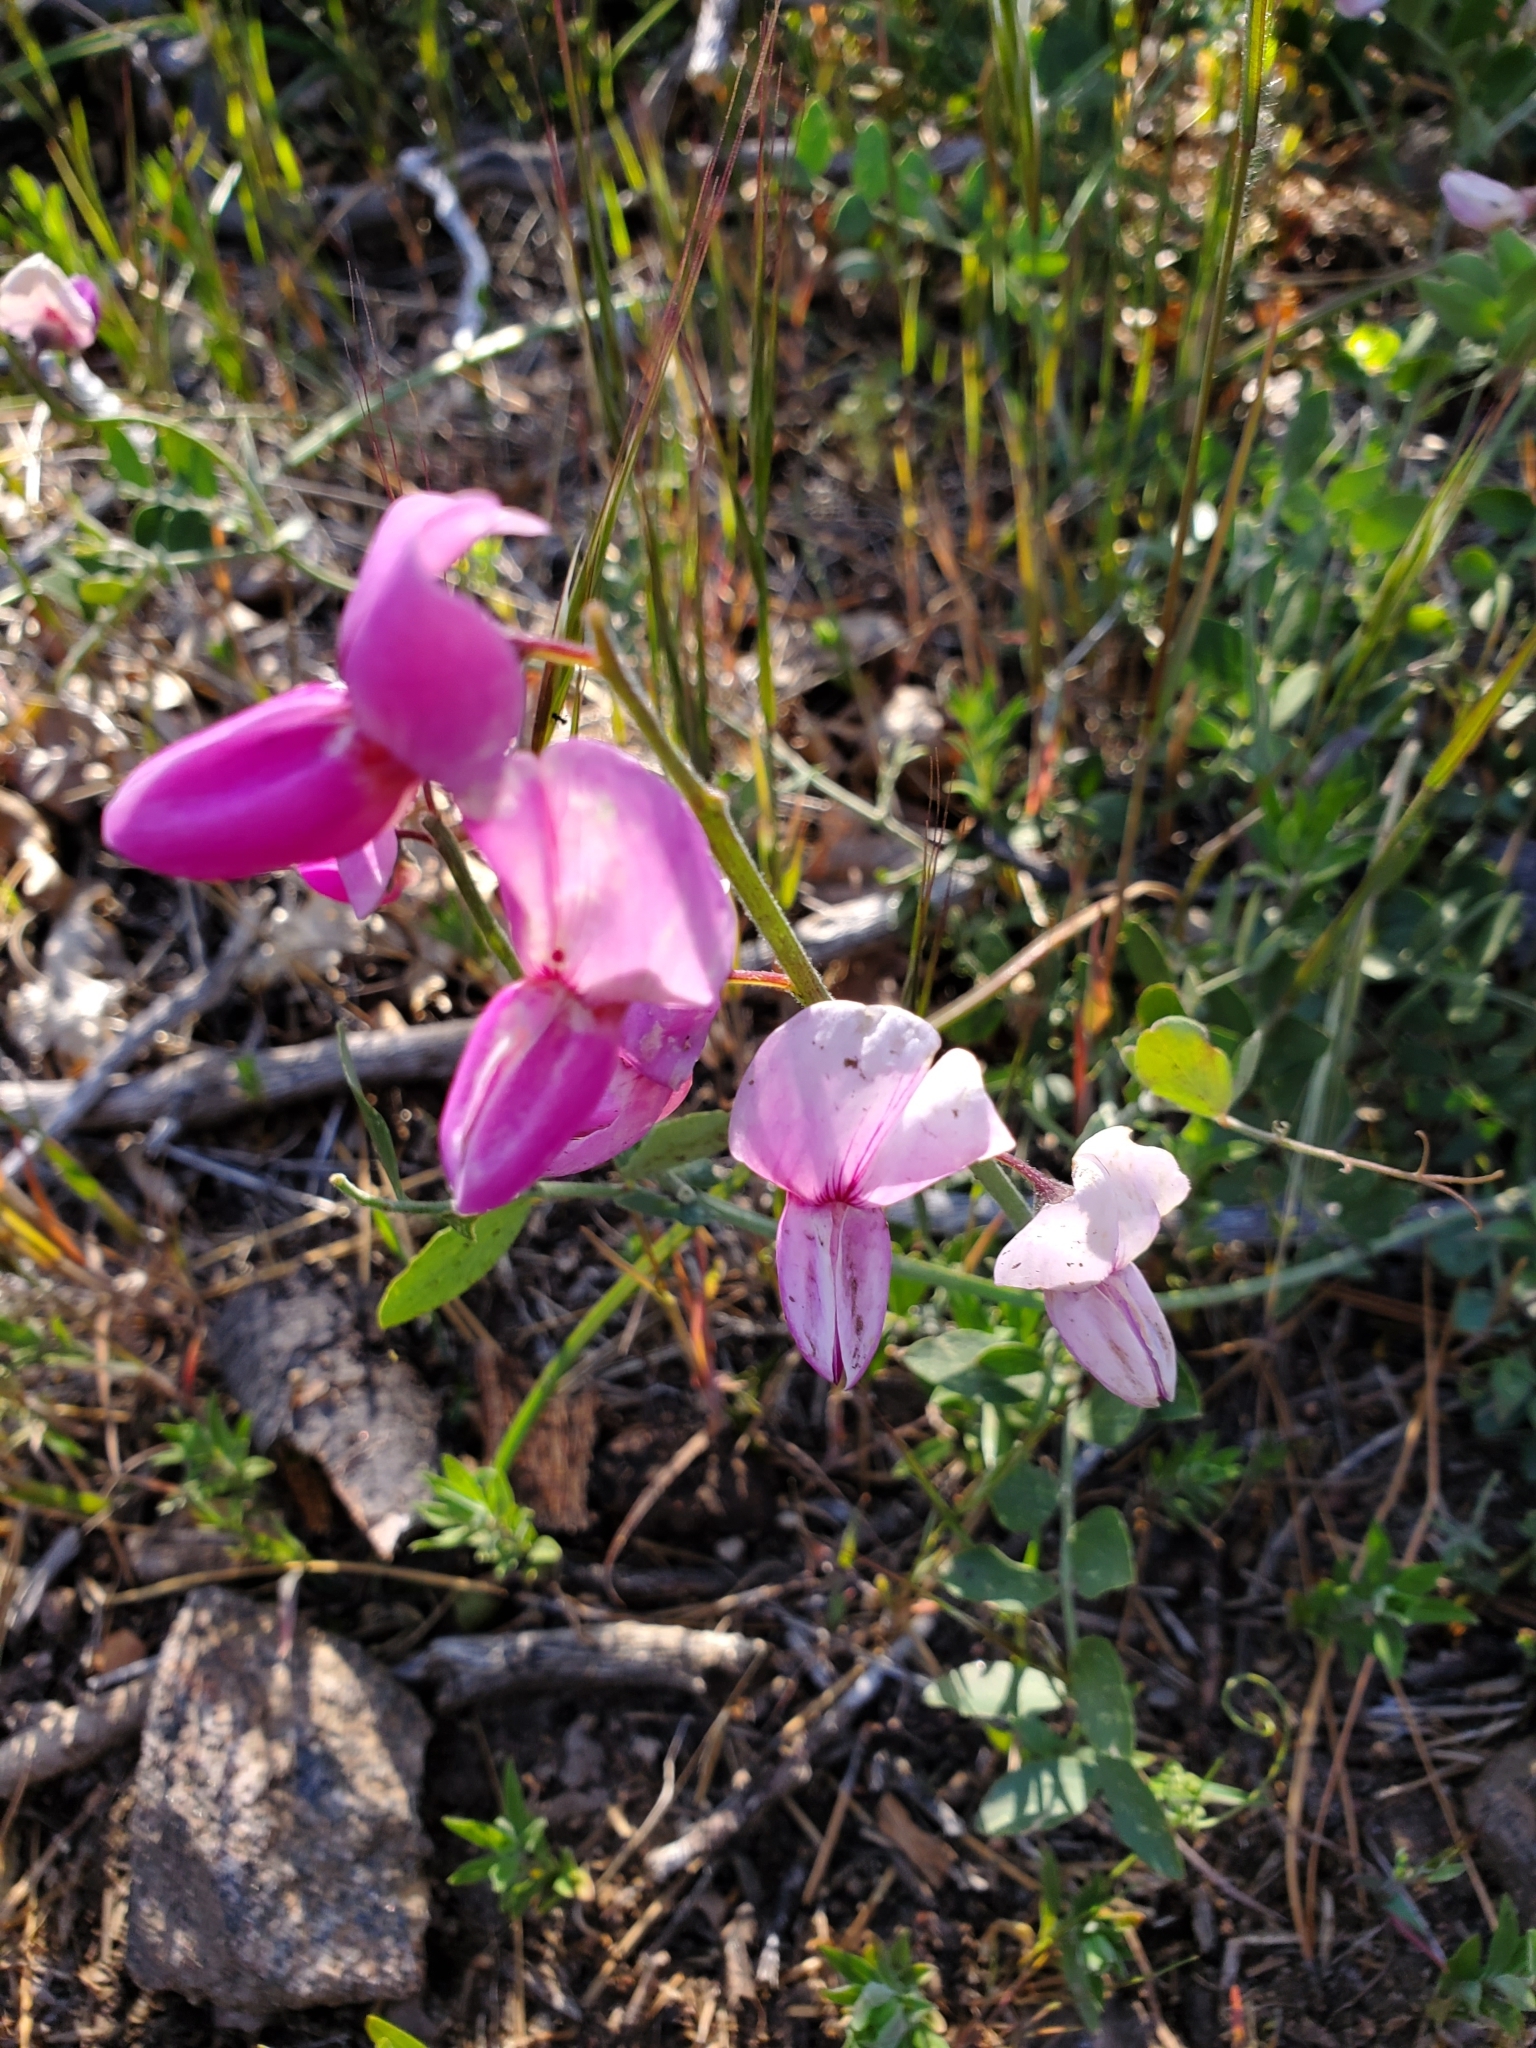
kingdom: Plantae
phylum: Tracheophyta
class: Magnoliopsida
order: Fabales
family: Fabaceae
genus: Lathyrus
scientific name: Lathyrus vestitus
